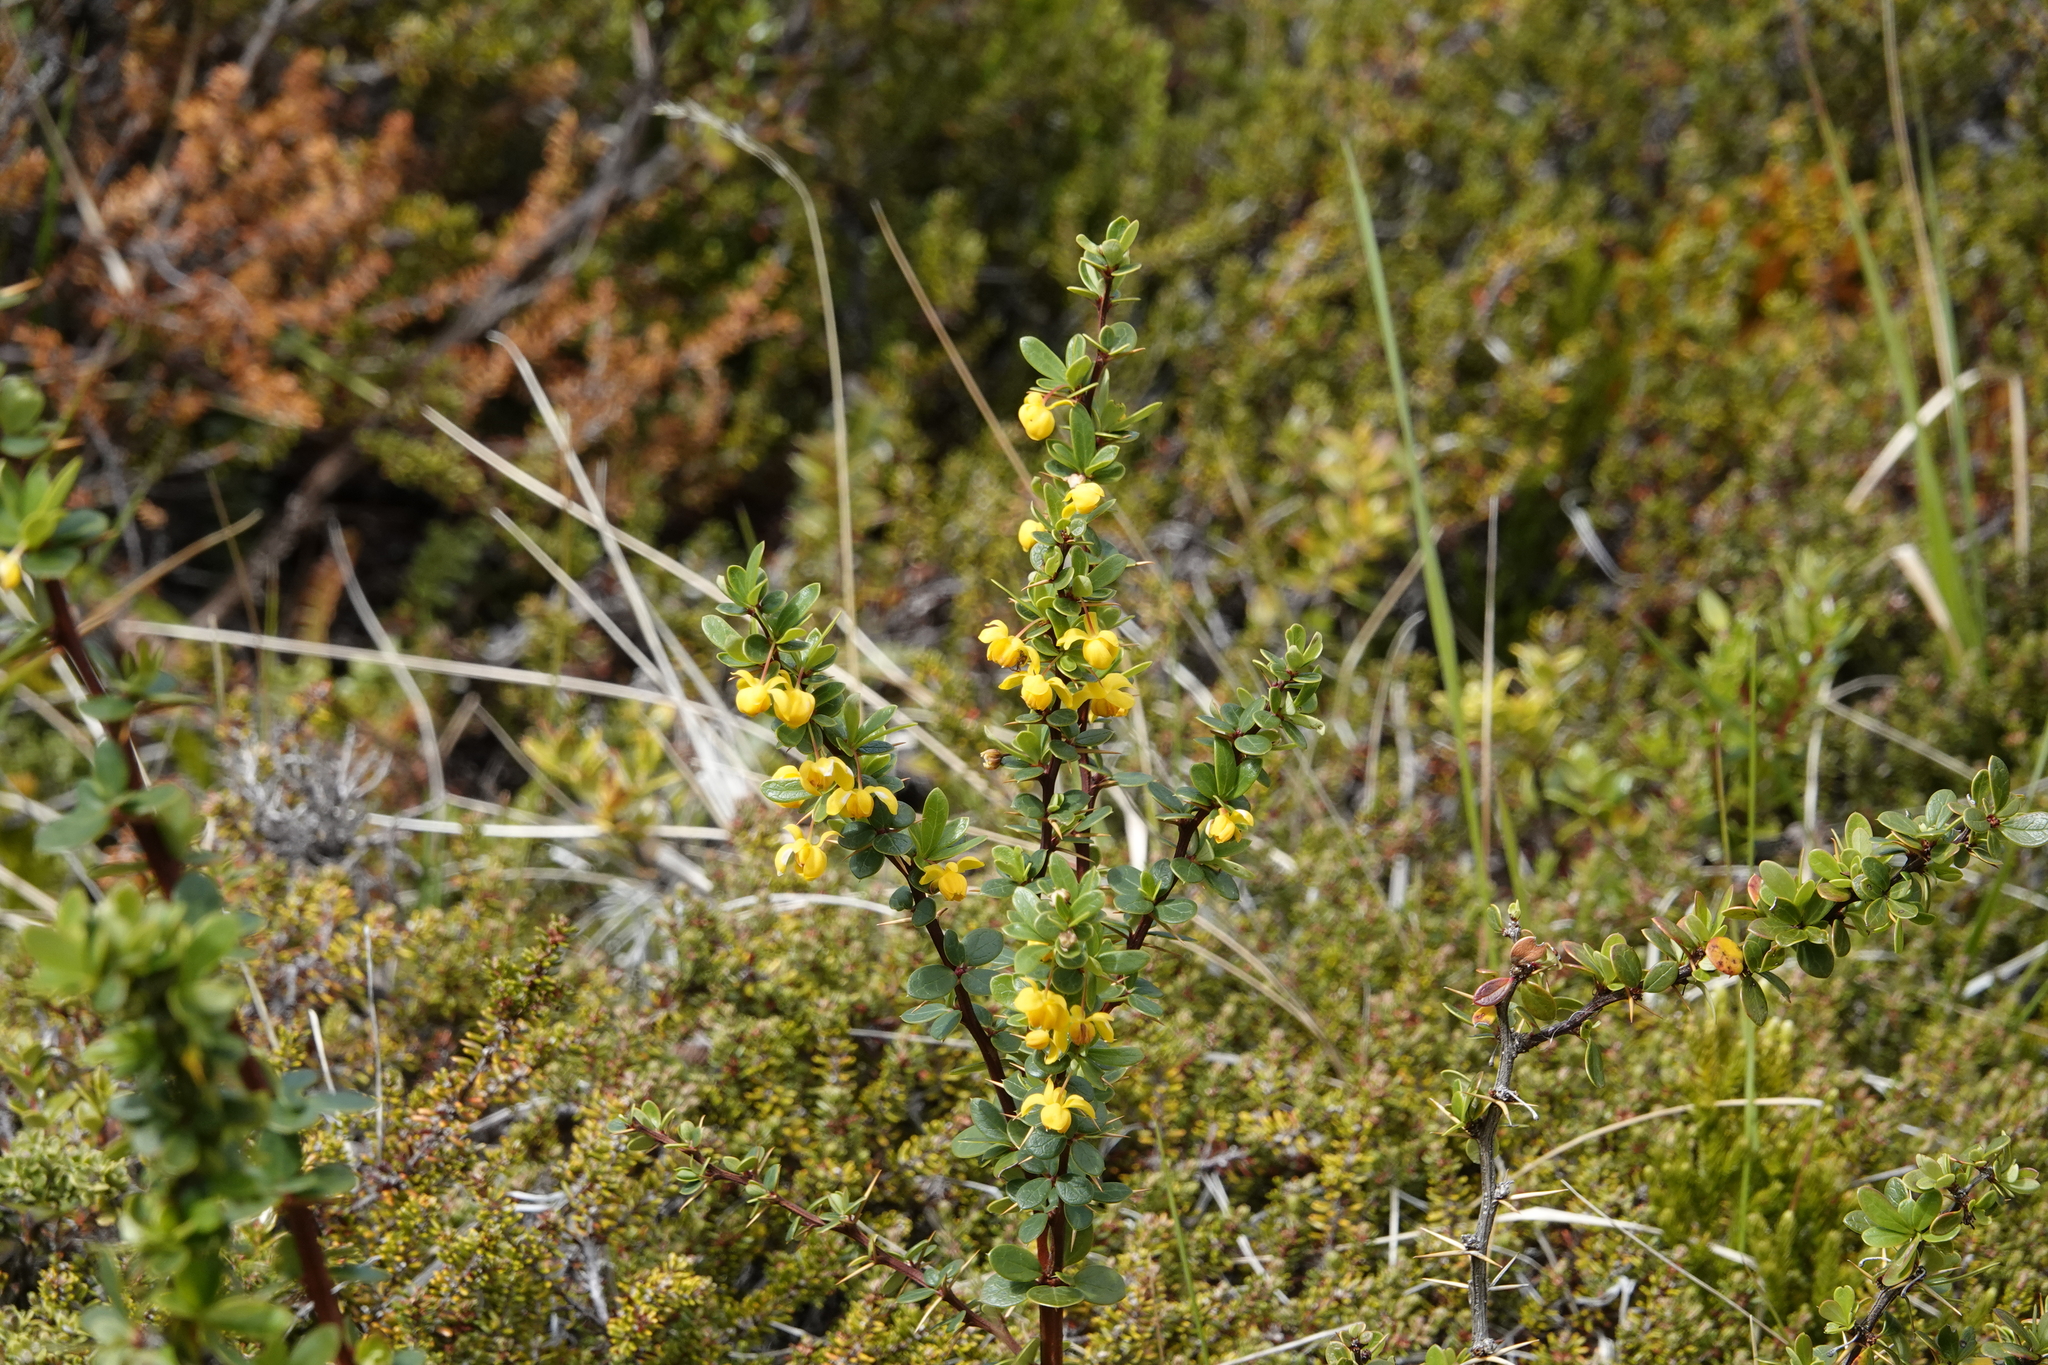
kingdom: Plantae
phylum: Tracheophyta
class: Magnoliopsida
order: Ranunculales
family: Berberidaceae
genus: Berberis
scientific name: Berberis microphylla
